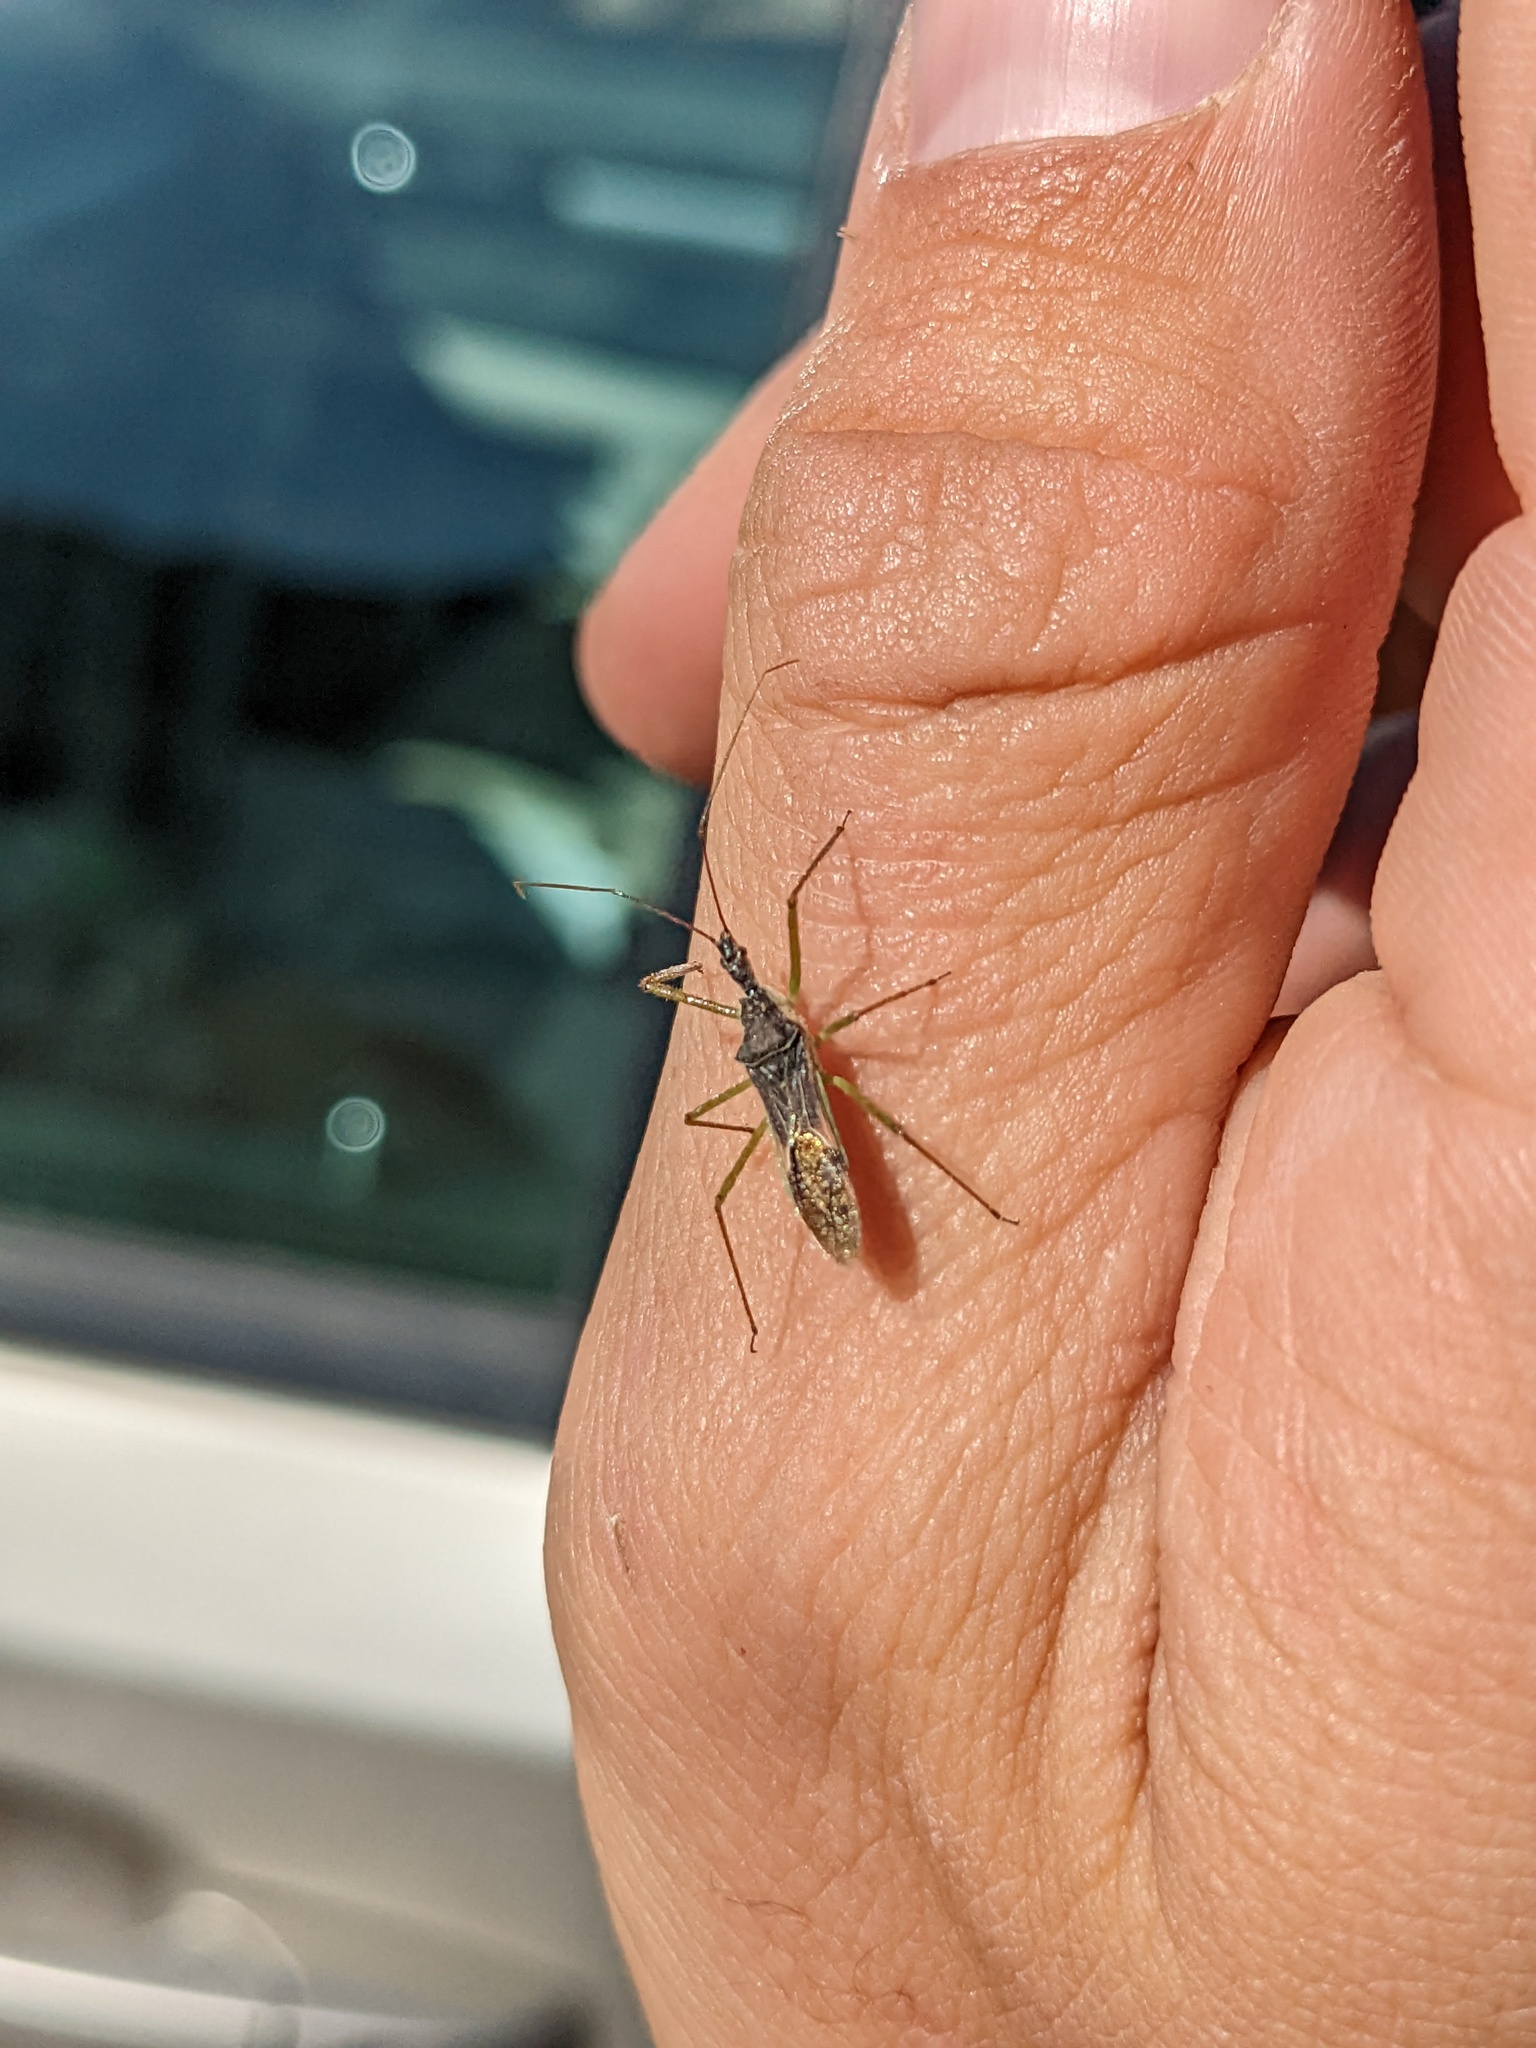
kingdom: Animalia
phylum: Arthropoda
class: Insecta
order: Hemiptera
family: Reduviidae
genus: Zelus
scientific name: Zelus renardii
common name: Assassin bug
